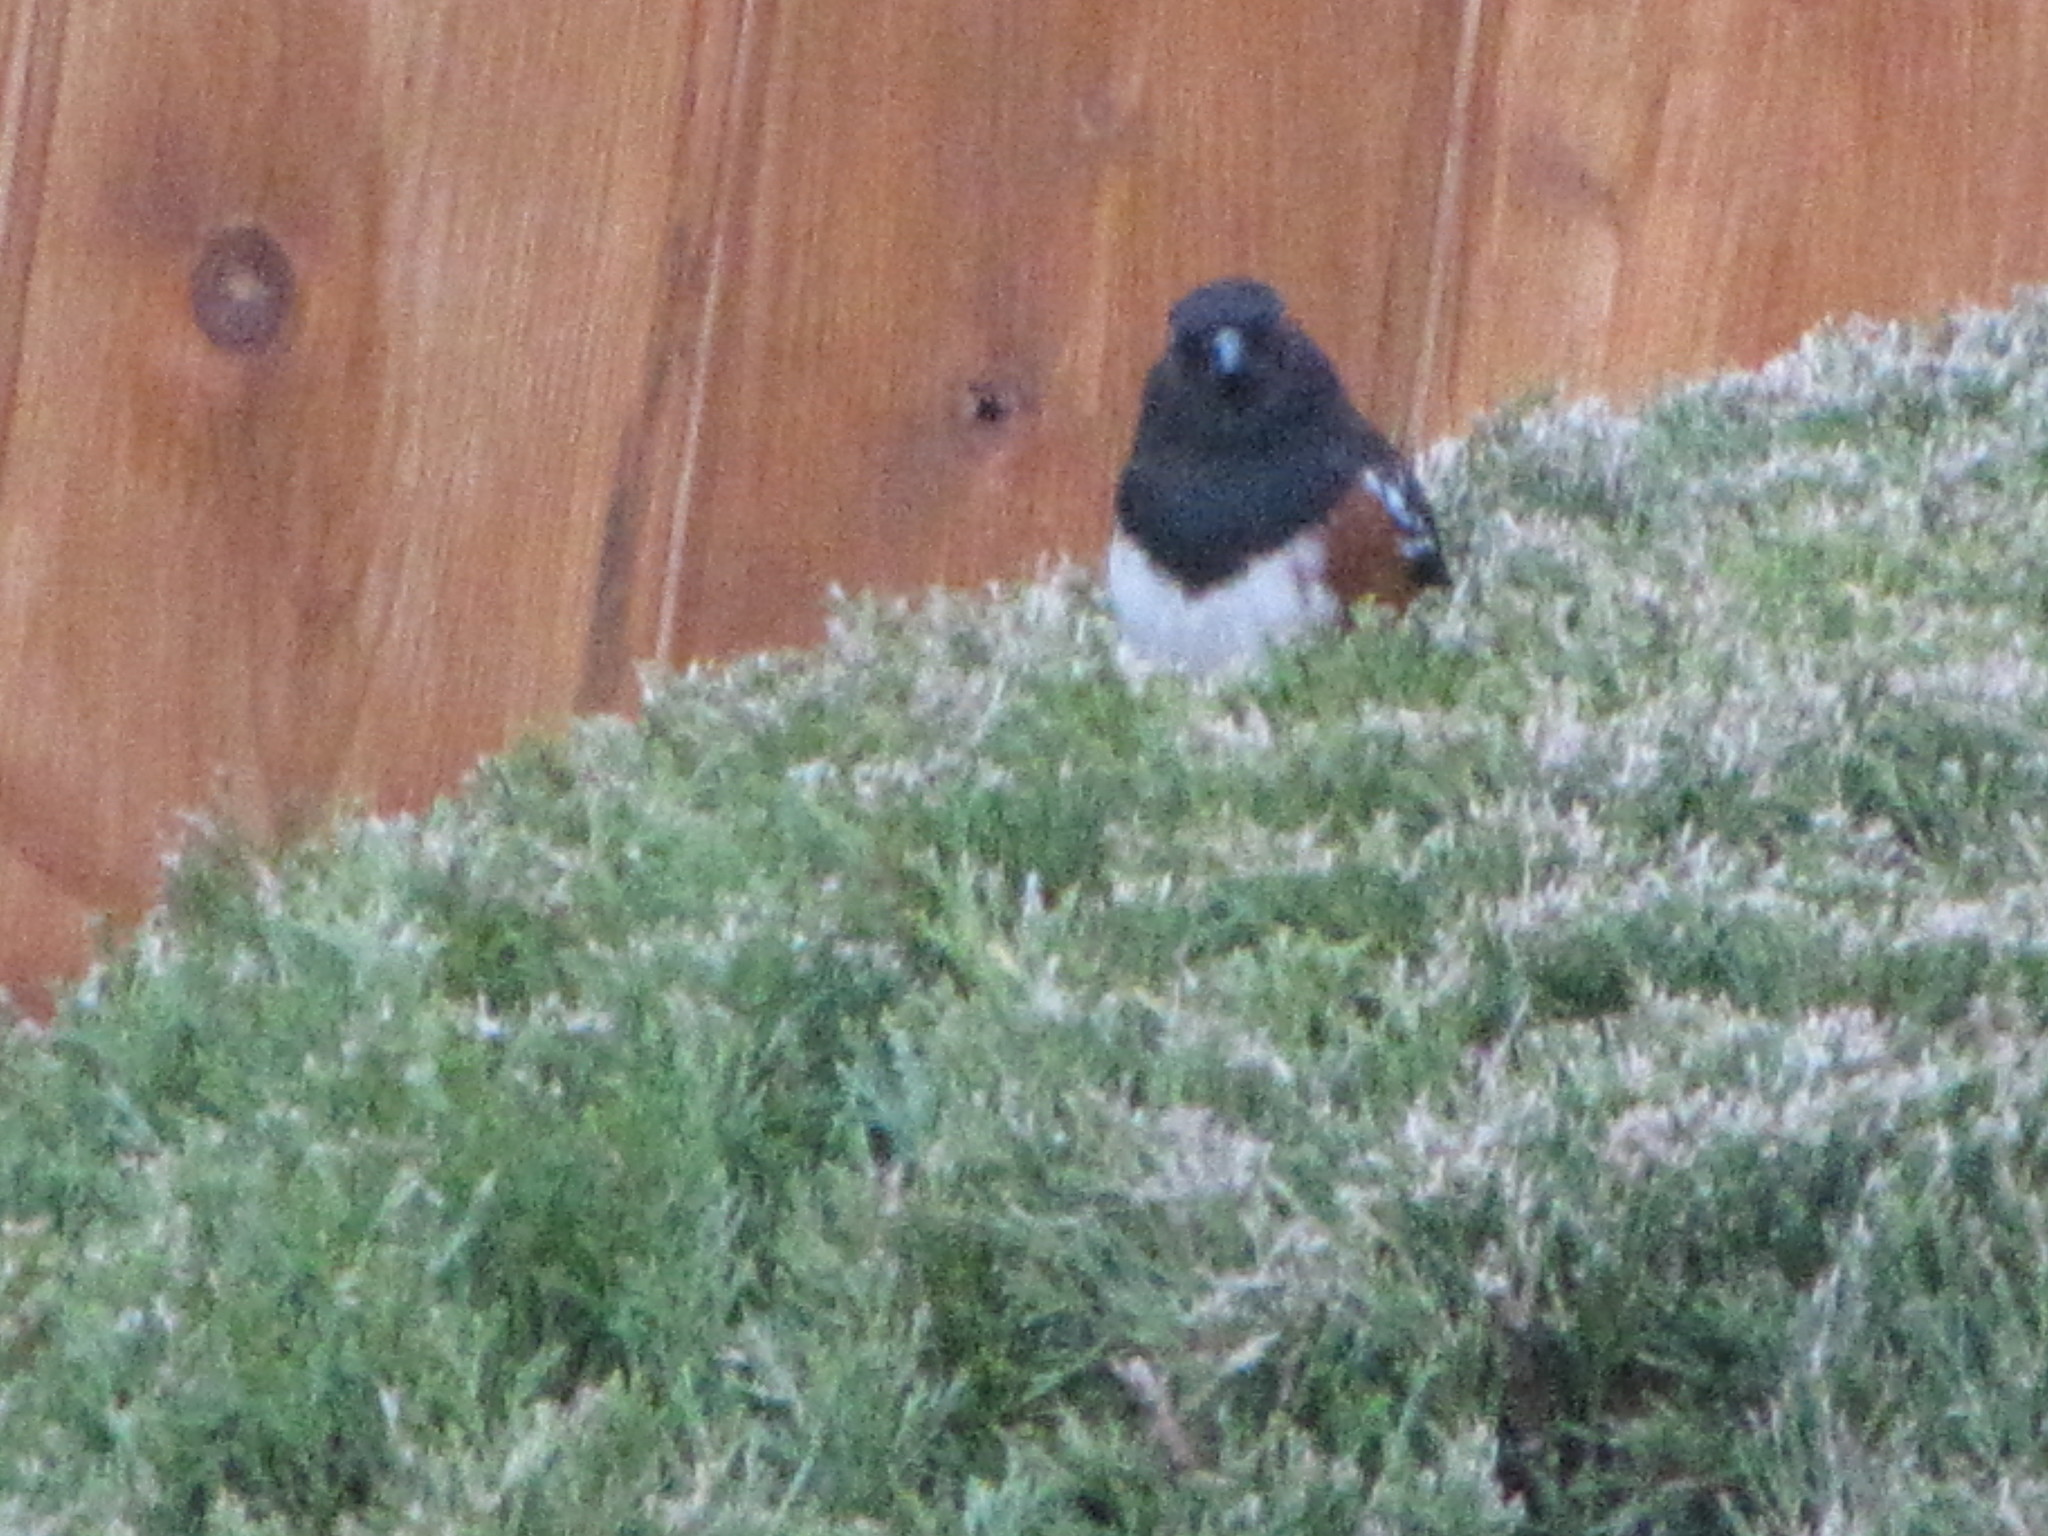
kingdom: Animalia
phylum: Chordata
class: Aves
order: Passeriformes
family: Passerellidae
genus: Pipilo
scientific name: Pipilo maculatus
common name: Spotted towhee
